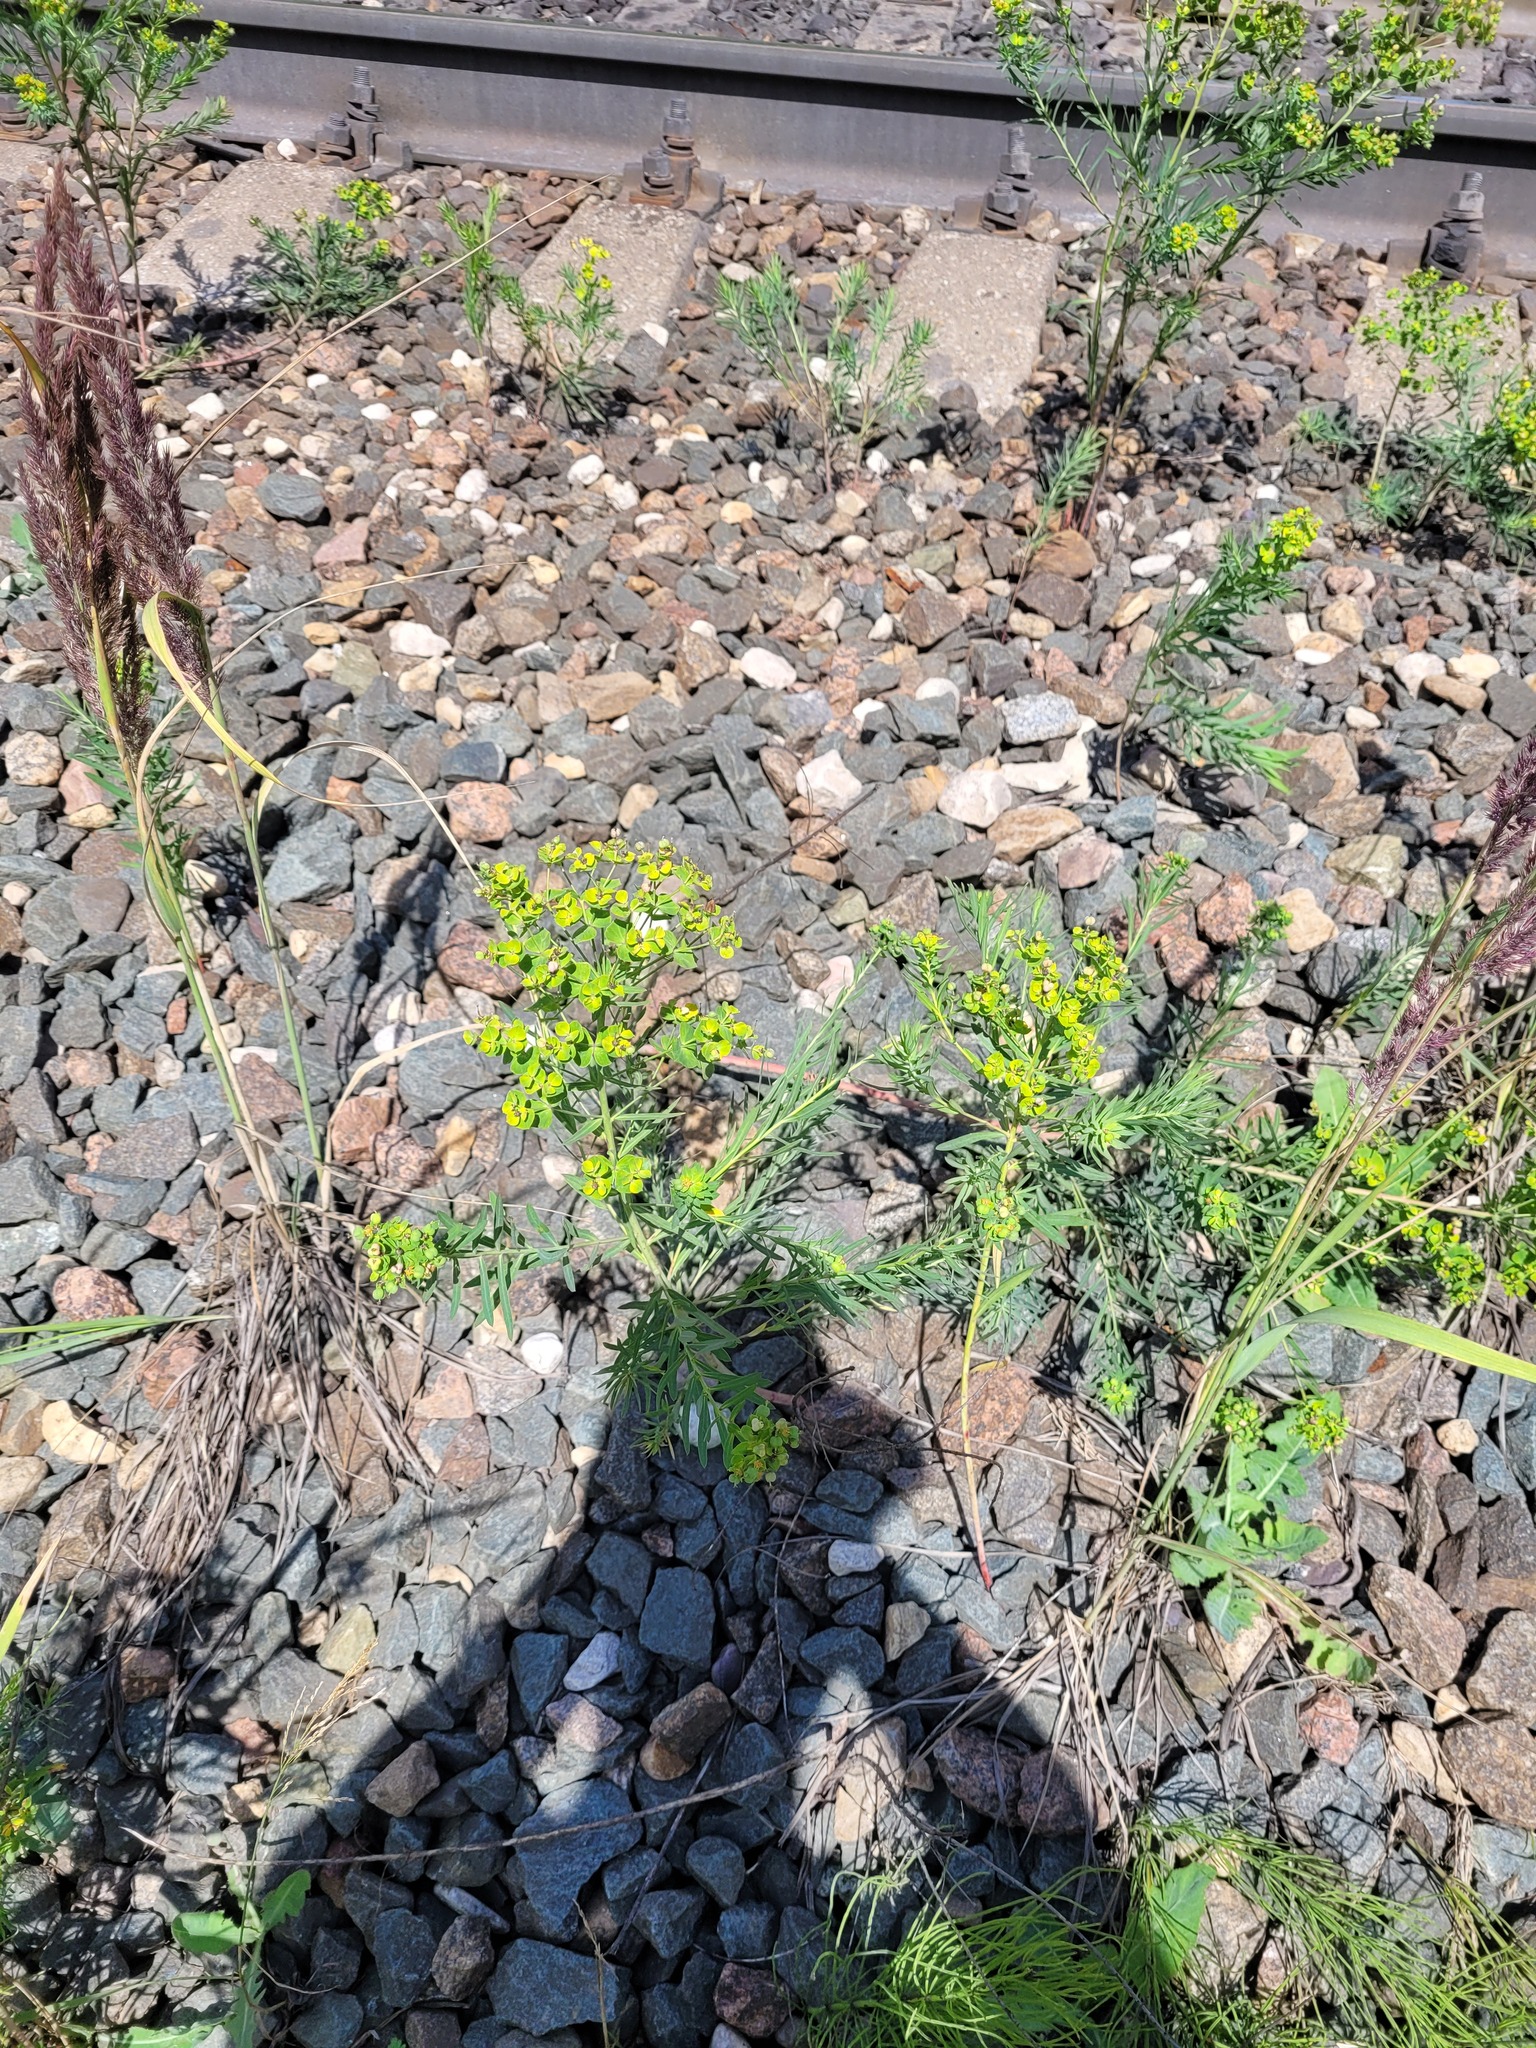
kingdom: Plantae
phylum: Tracheophyta
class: Magnoliopsida
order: Malpighiales
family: Euphorbiaceae
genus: Euphorbia
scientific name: Euphorbia virgata
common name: Leafy spurge
